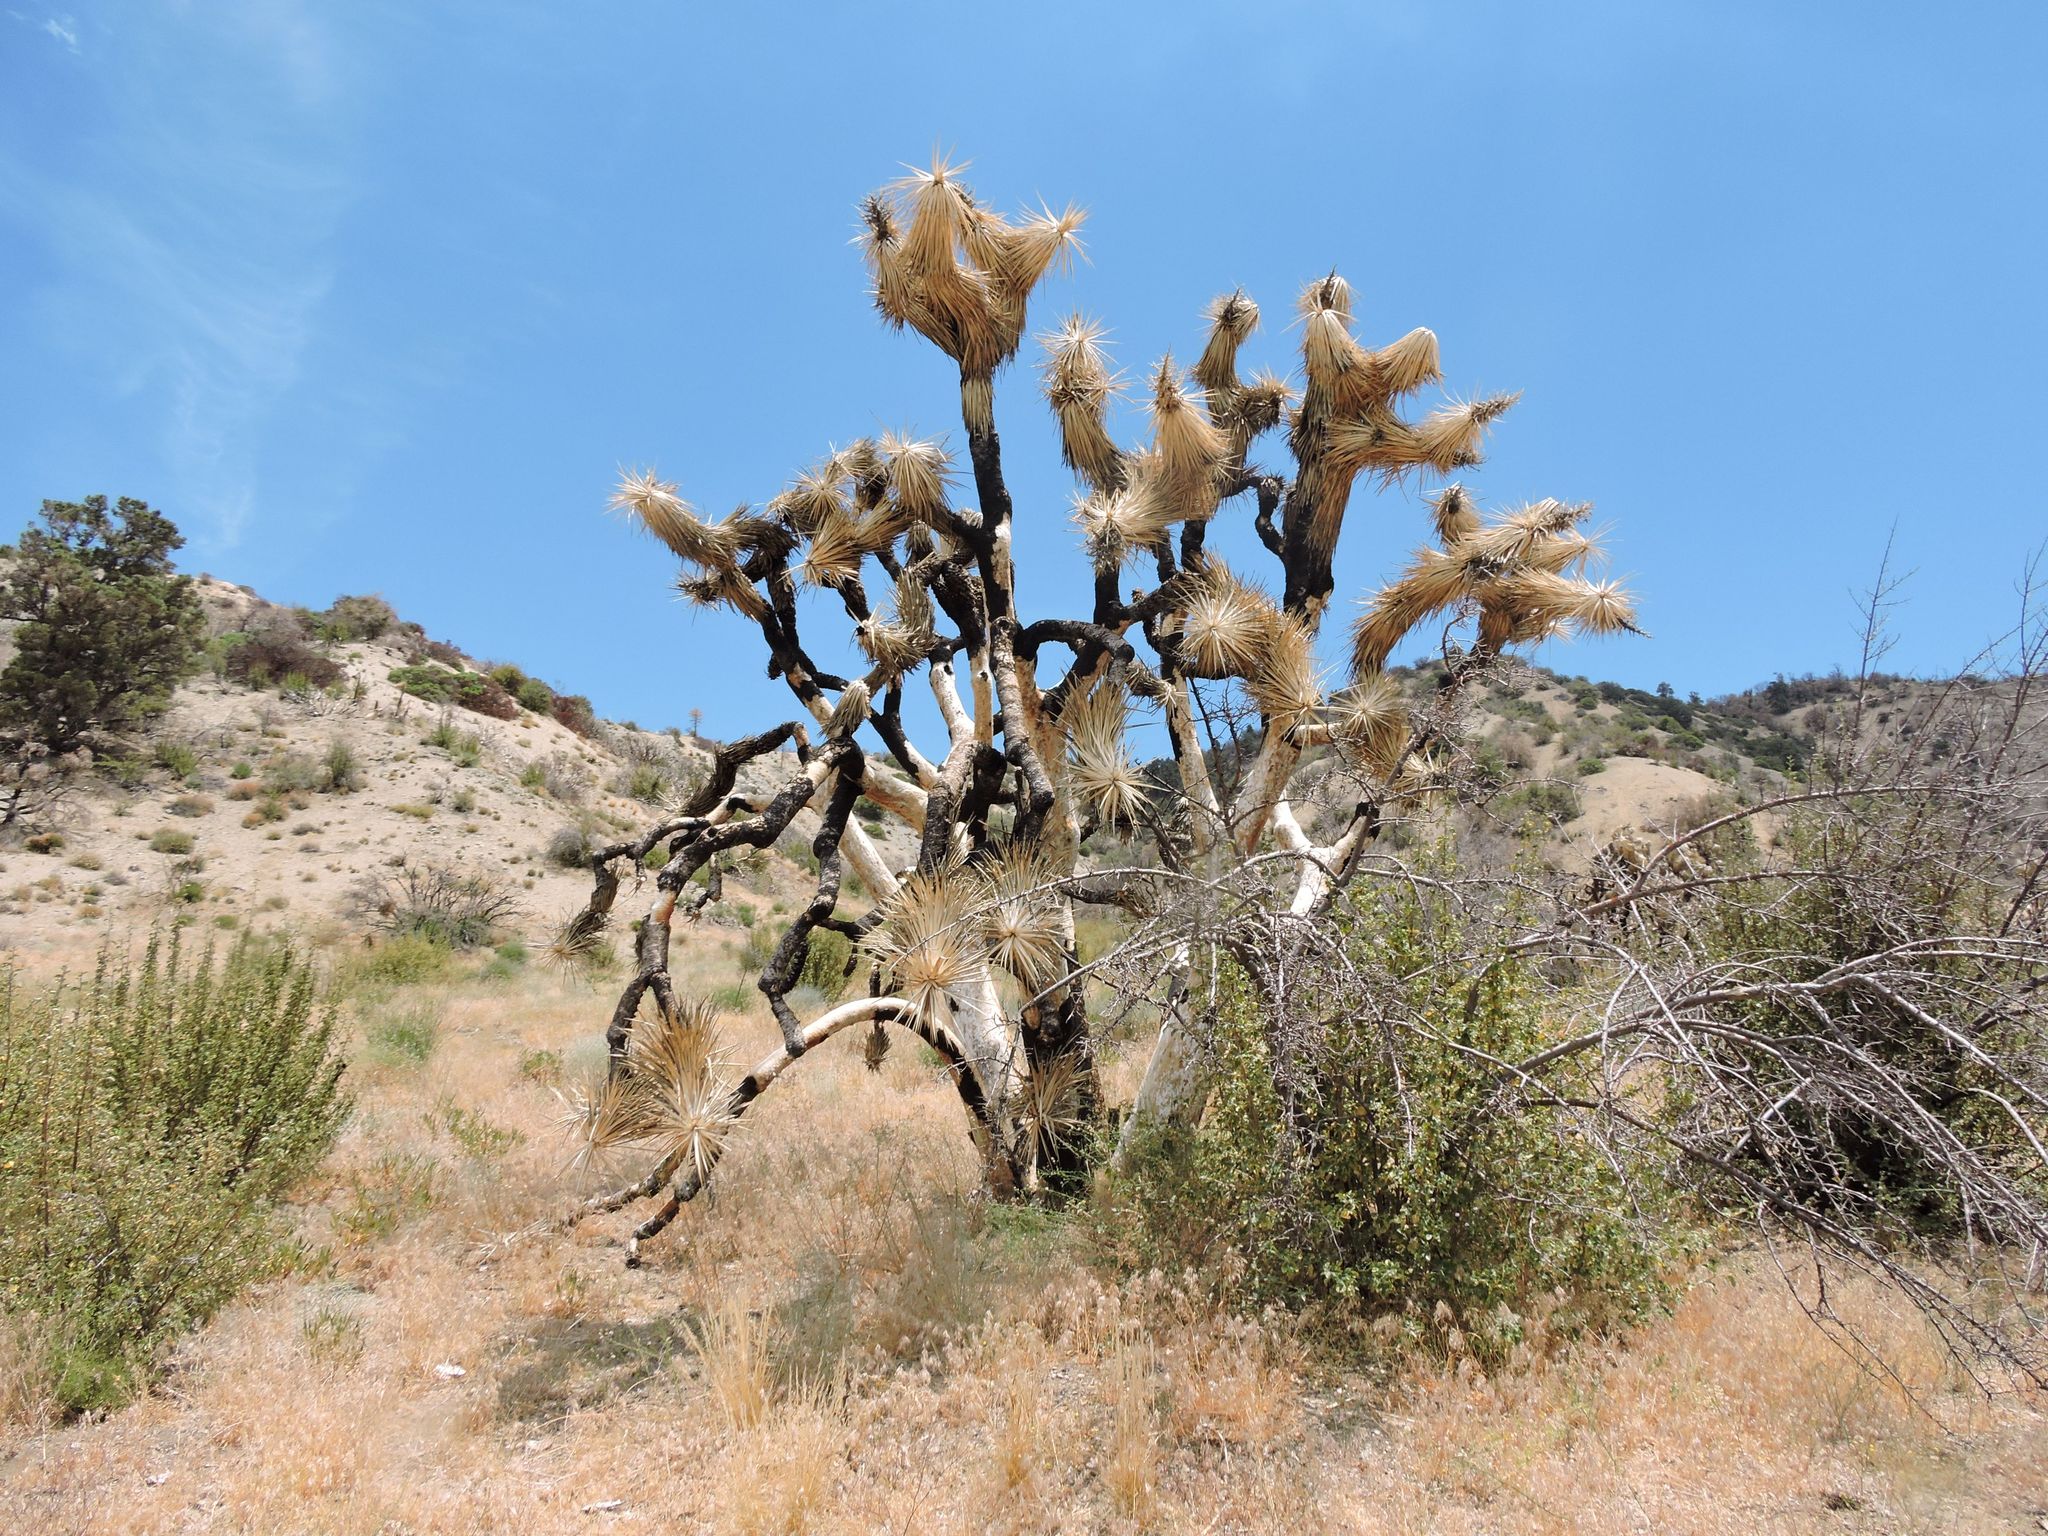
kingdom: Plantae
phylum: Tracheophyta
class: Liliopsida
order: Asparagales
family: Asparagaceae
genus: Yucca
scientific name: Yucca brevifolia
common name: Joshua tree
